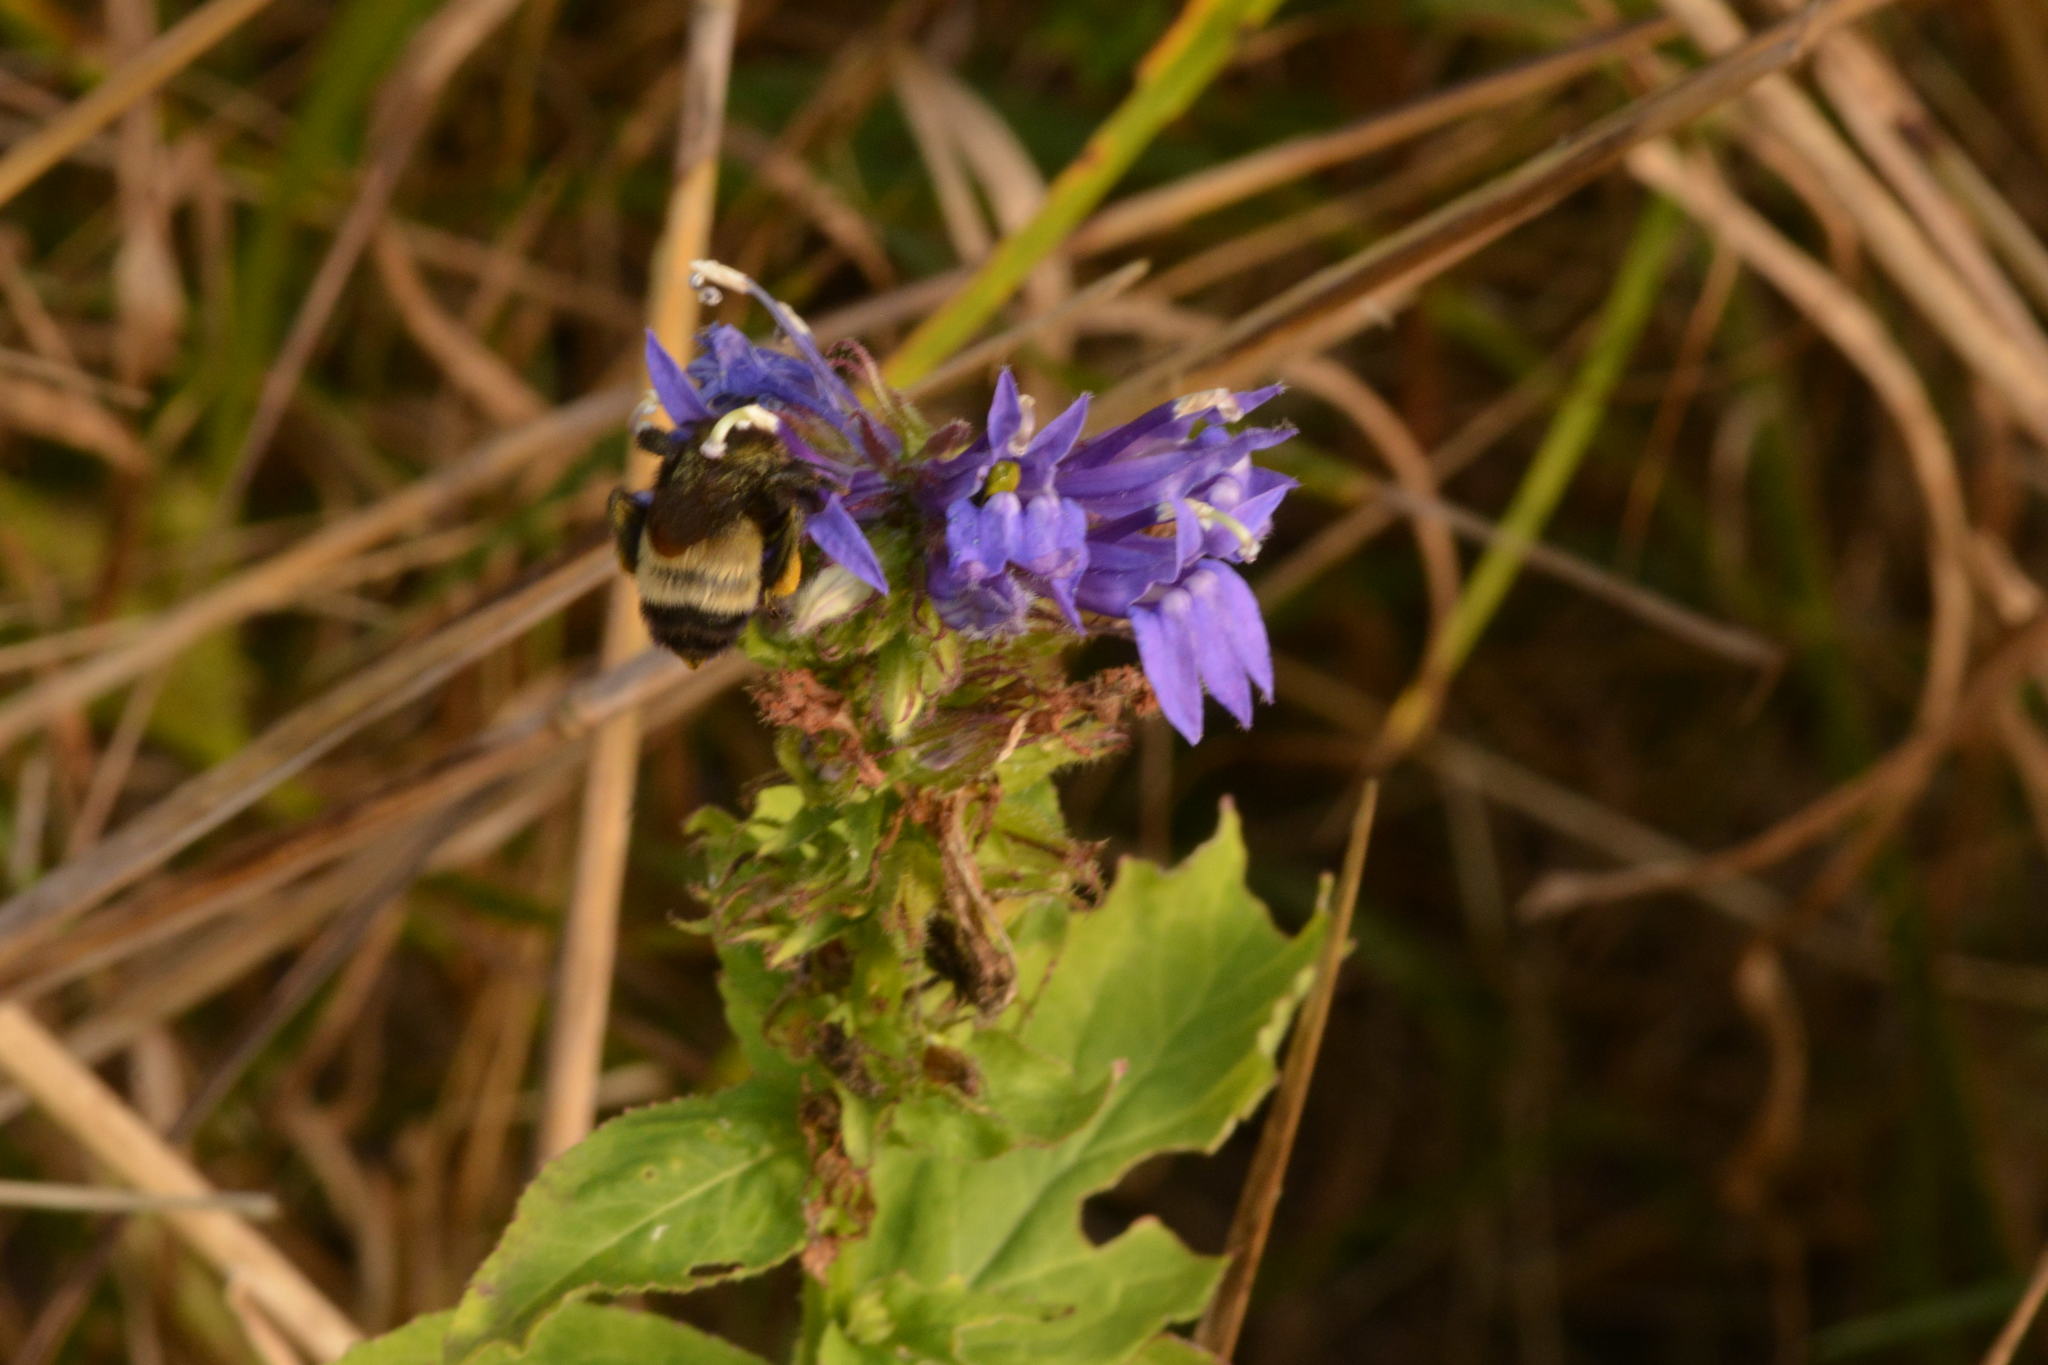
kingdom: Animalia
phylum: Arthropoda
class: Insecta
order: Hymenoptera
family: Apidae
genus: Bombus
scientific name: Bombus pensylvanicus
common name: Bumble bee
